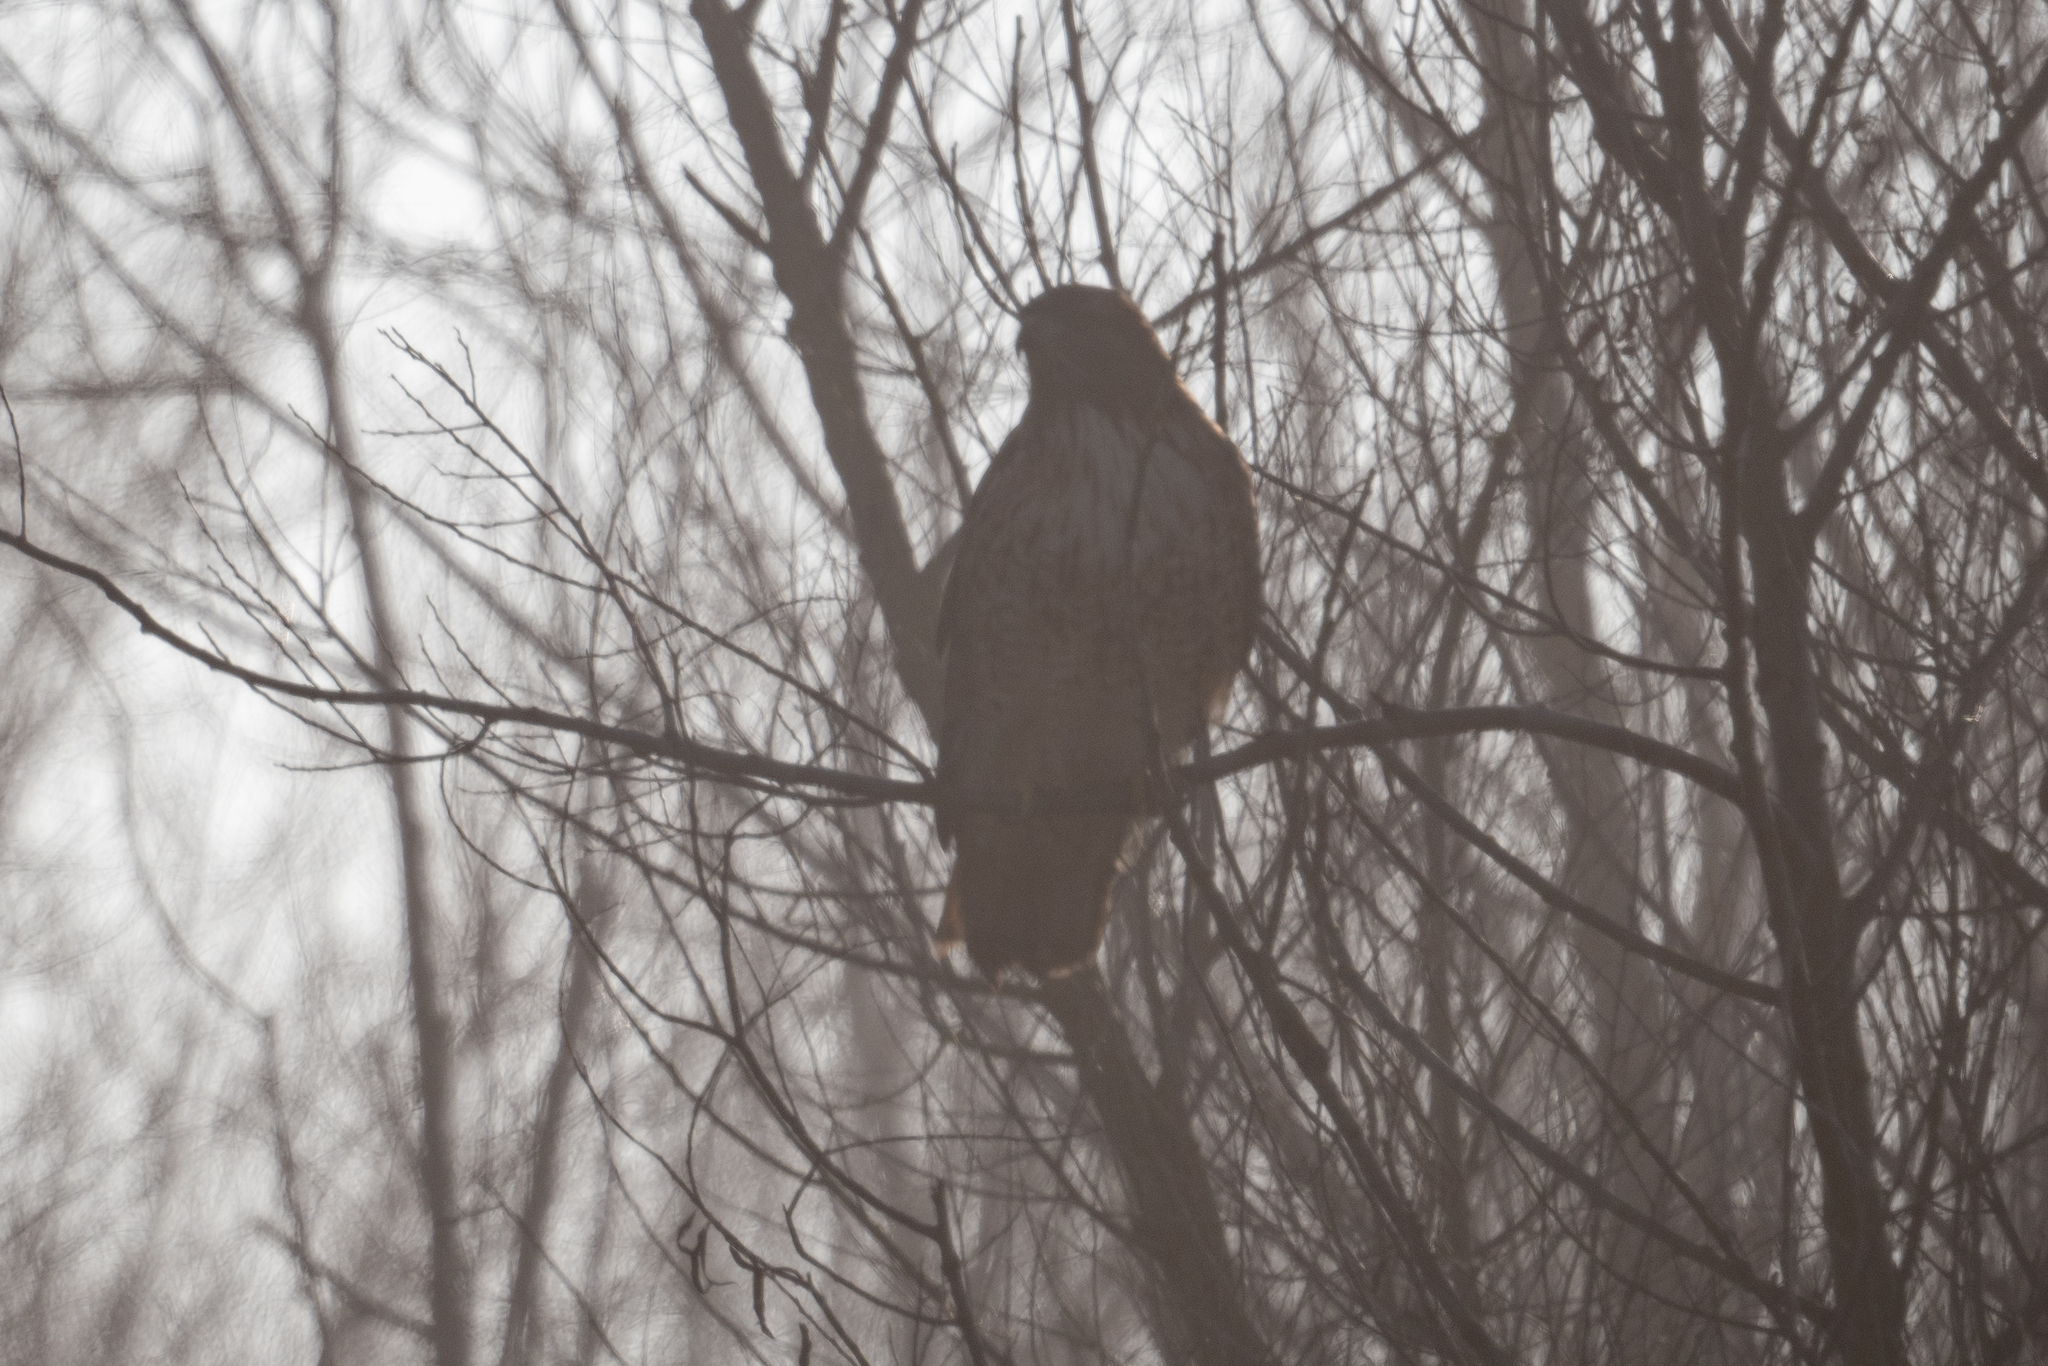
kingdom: Animalia
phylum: Chordata
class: Aves
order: Accipitriformes
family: Accipitridae
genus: Buteo
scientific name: Buteo jamaicensis
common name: Red-tailed hawk
